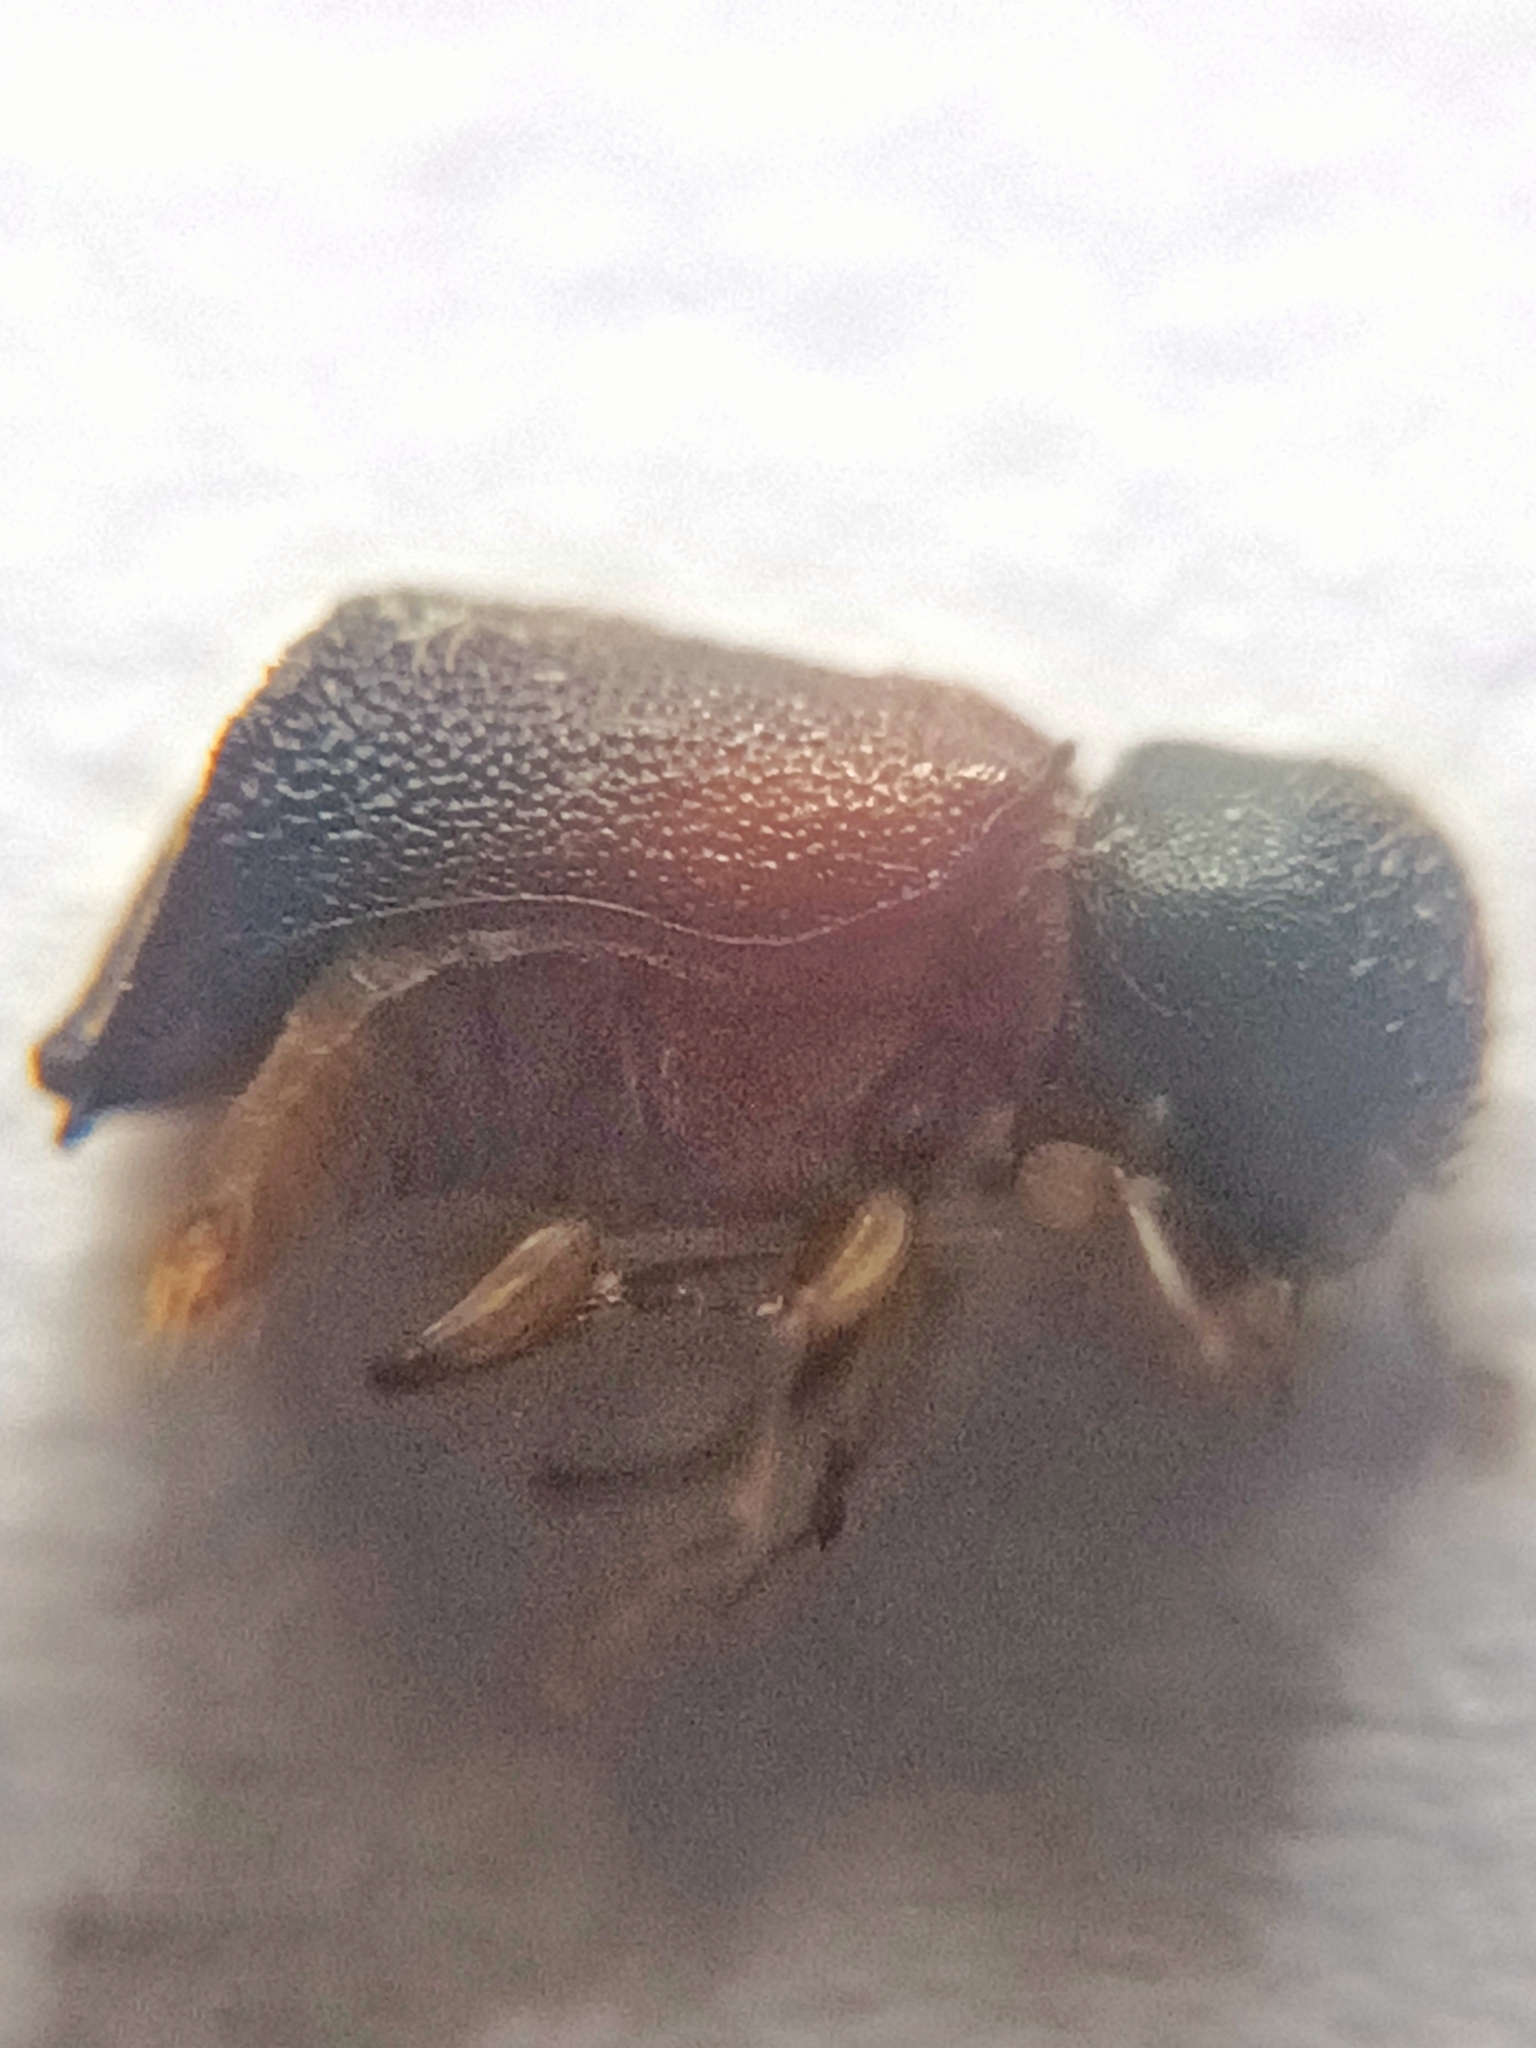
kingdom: Animalia
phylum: Arthropoda
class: Insecta
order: Coleoptera
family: Bostrichidae
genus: Xylopsocus
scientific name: Xylopsocus capucinus
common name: False powder-post beetle
